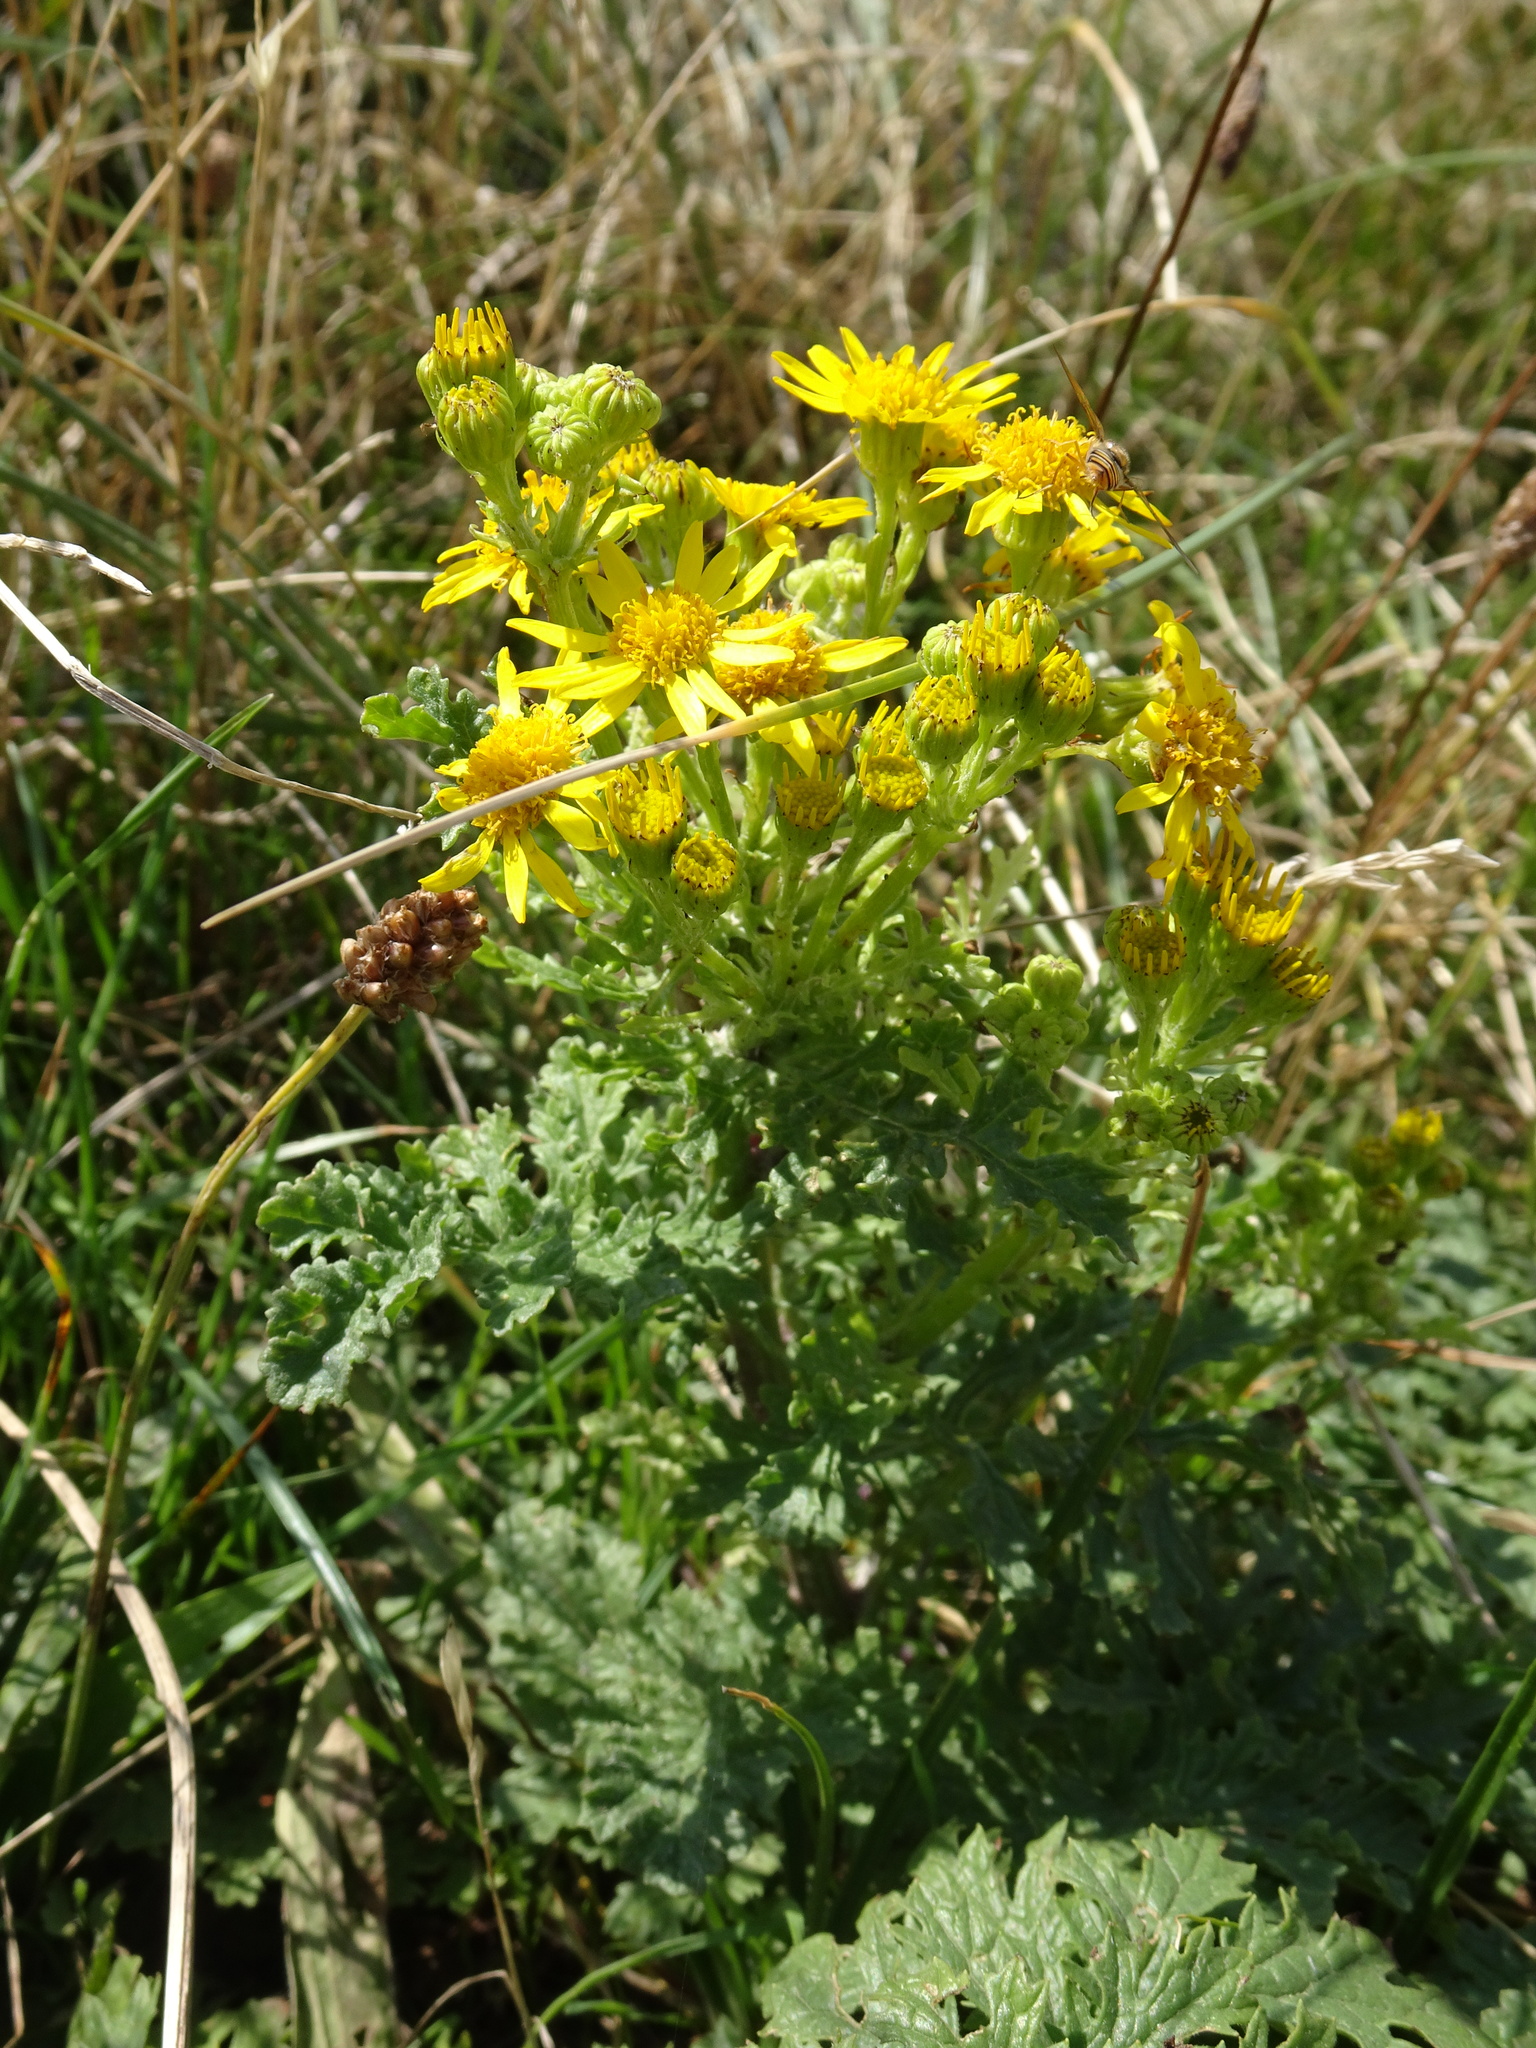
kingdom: Plantae
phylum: Tracheophyta
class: Magnoliopsida
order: Asterales
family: Asteraceae
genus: Jacobaea
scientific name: Jacobaea vulgaris
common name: Stinking willie
